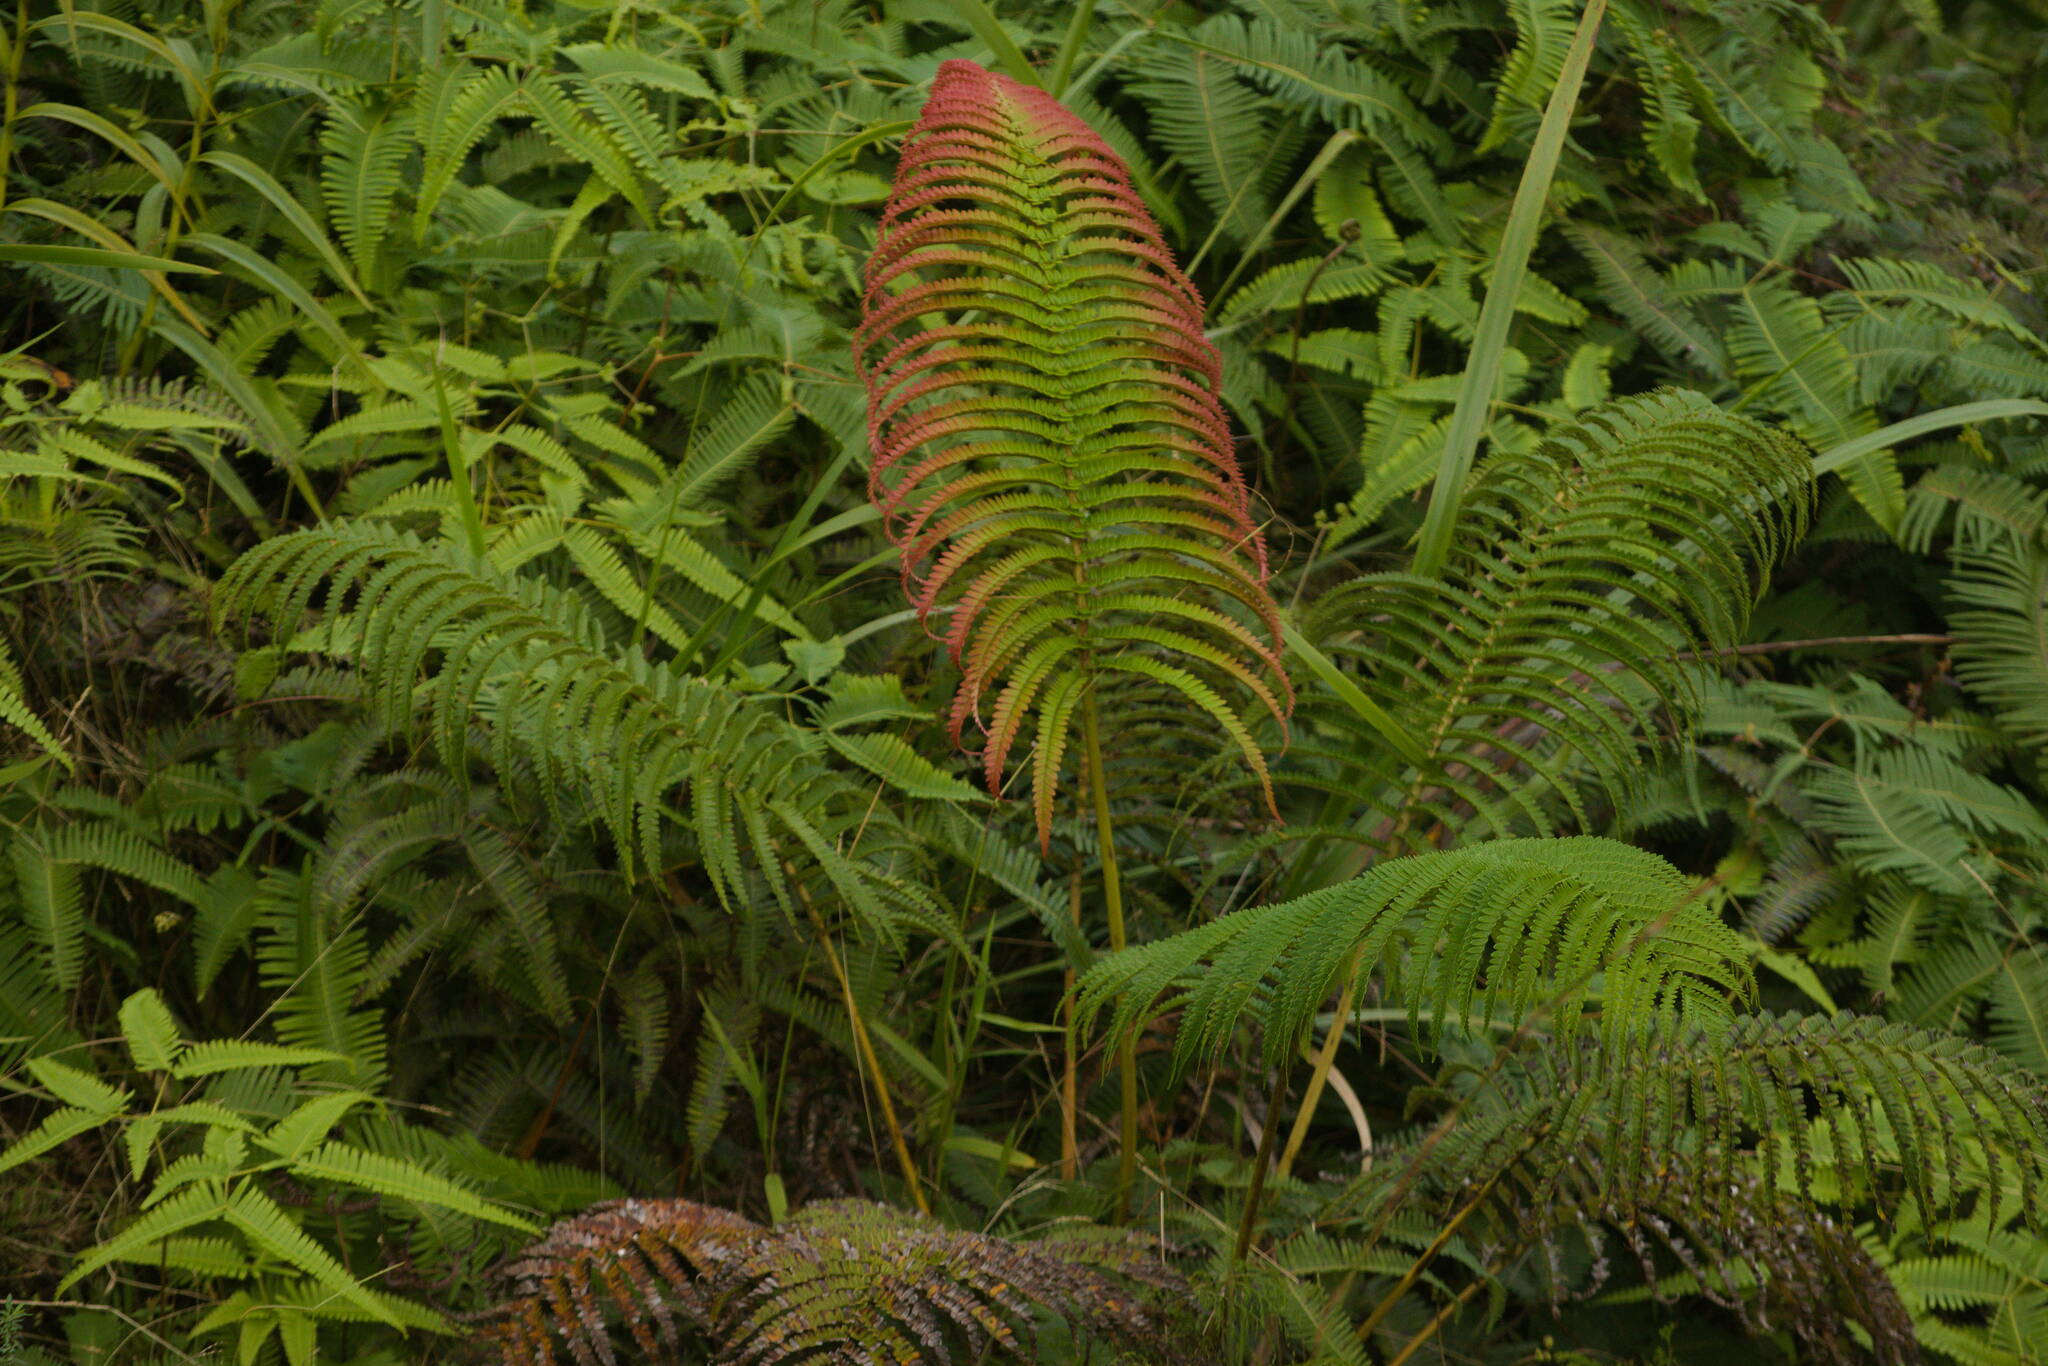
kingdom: Plantae
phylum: Tracheophyta
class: Polypodiopsida
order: Polypodiales
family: Blechnaceae
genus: Sadleria
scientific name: Sadleria pallida
